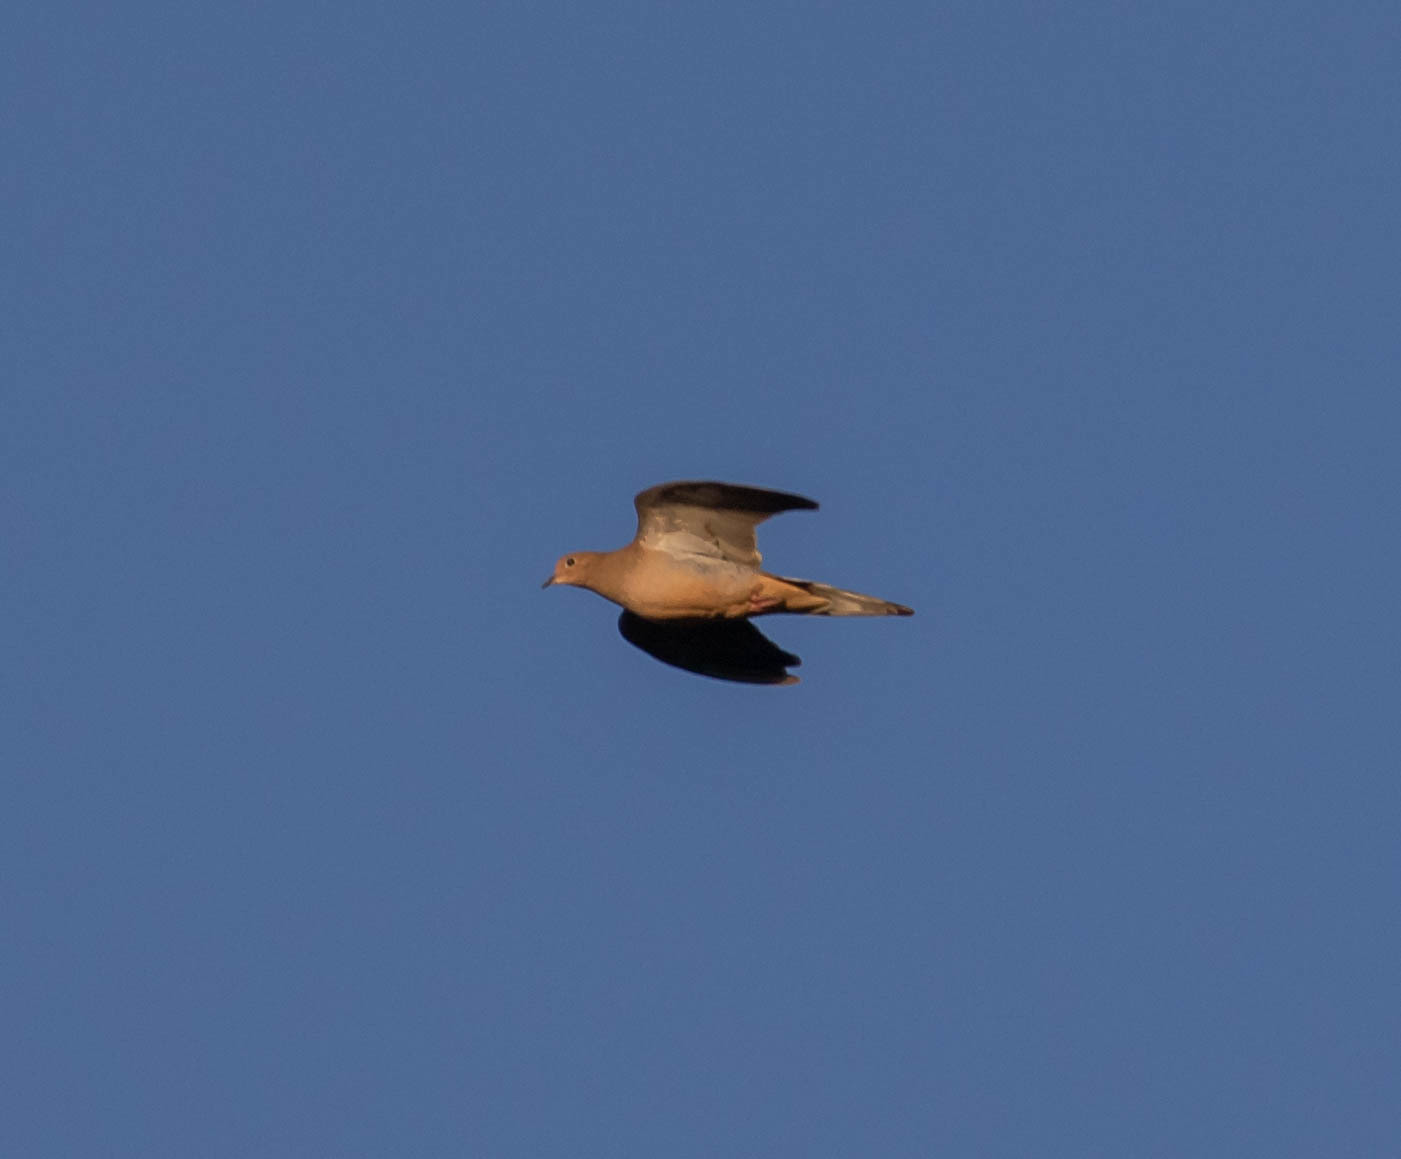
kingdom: Animalia
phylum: Chordata
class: Aves
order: Columbiformes
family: Columbidae
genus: Zenaida
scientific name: Zenaida macroura
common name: Mourning dove
